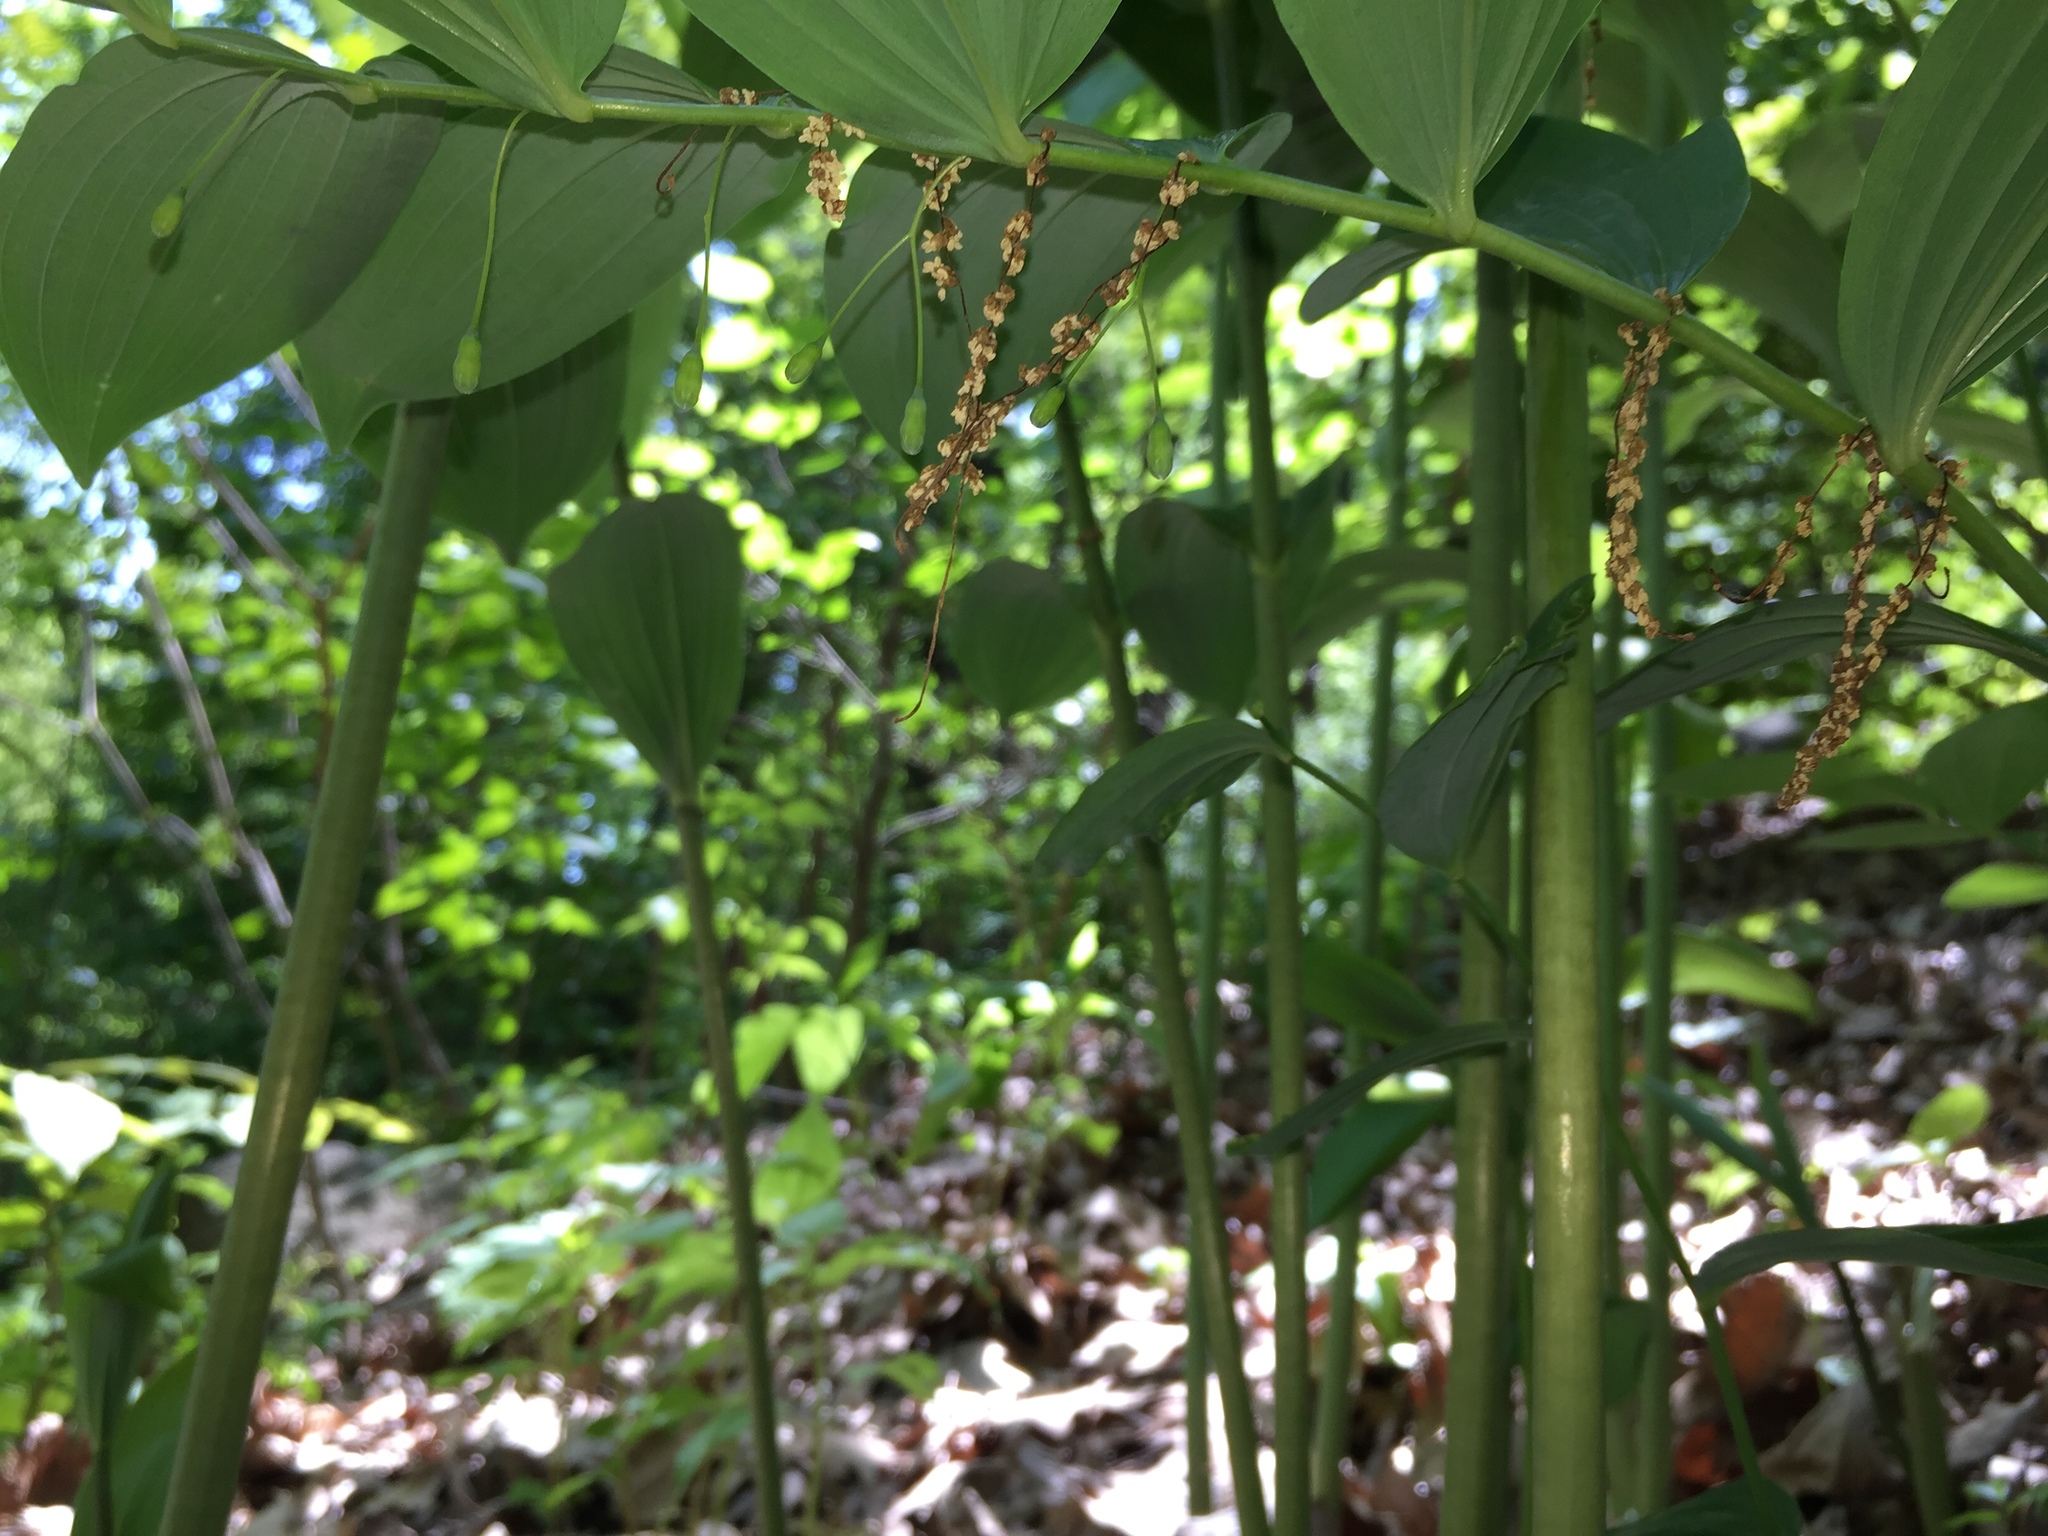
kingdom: Plantae
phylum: Tracheophyta
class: Liliopsida
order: Asparagales
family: Asparagaceae
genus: Polygonatum
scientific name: Polygonatum biflorum
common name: American solomon's-seal
